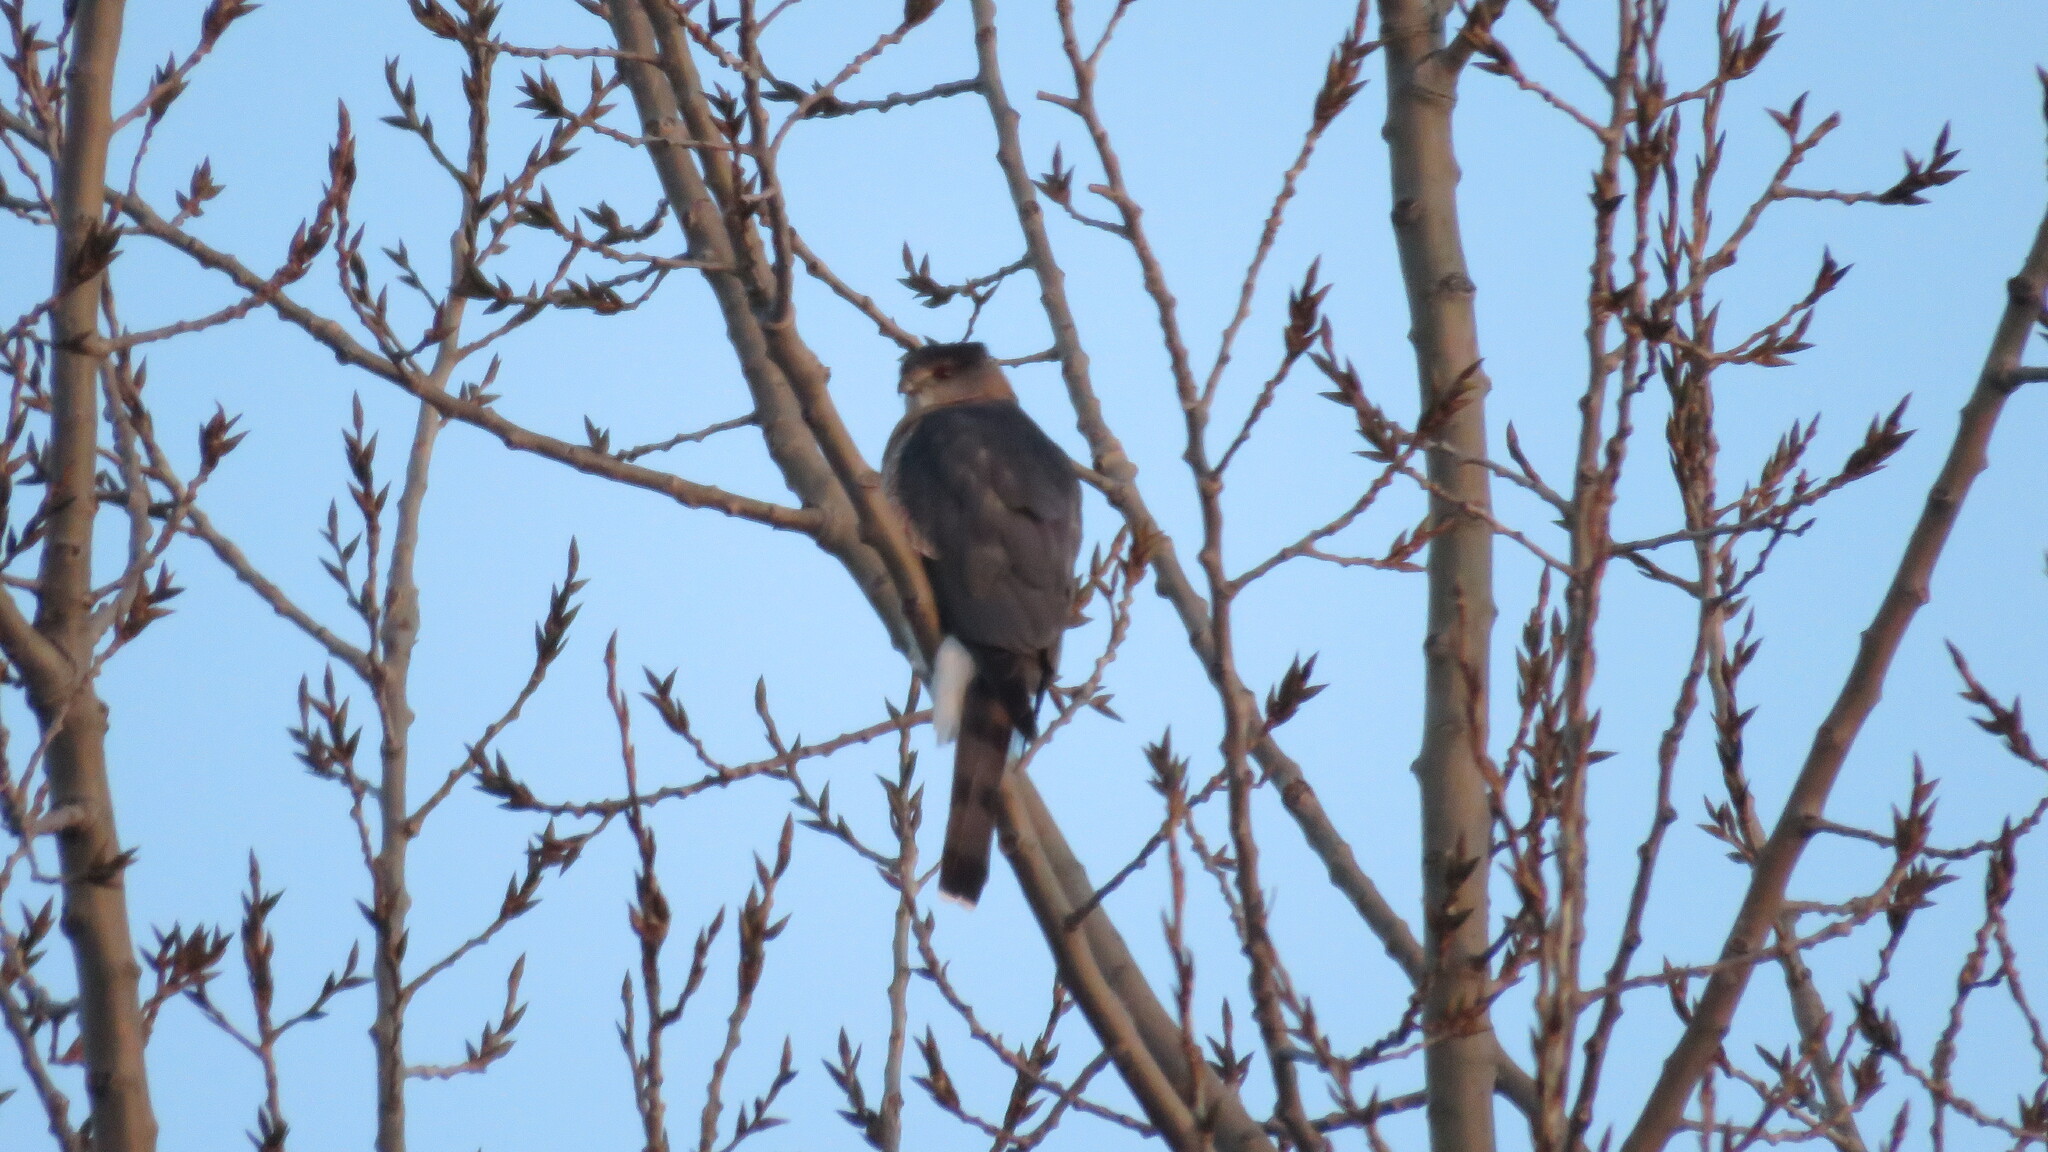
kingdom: Animalia
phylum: Chordata
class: Aves
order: Accipitriformes
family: Accipitridae
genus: Accipiter
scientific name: Accipiter cooperii
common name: Cooper's hawk
